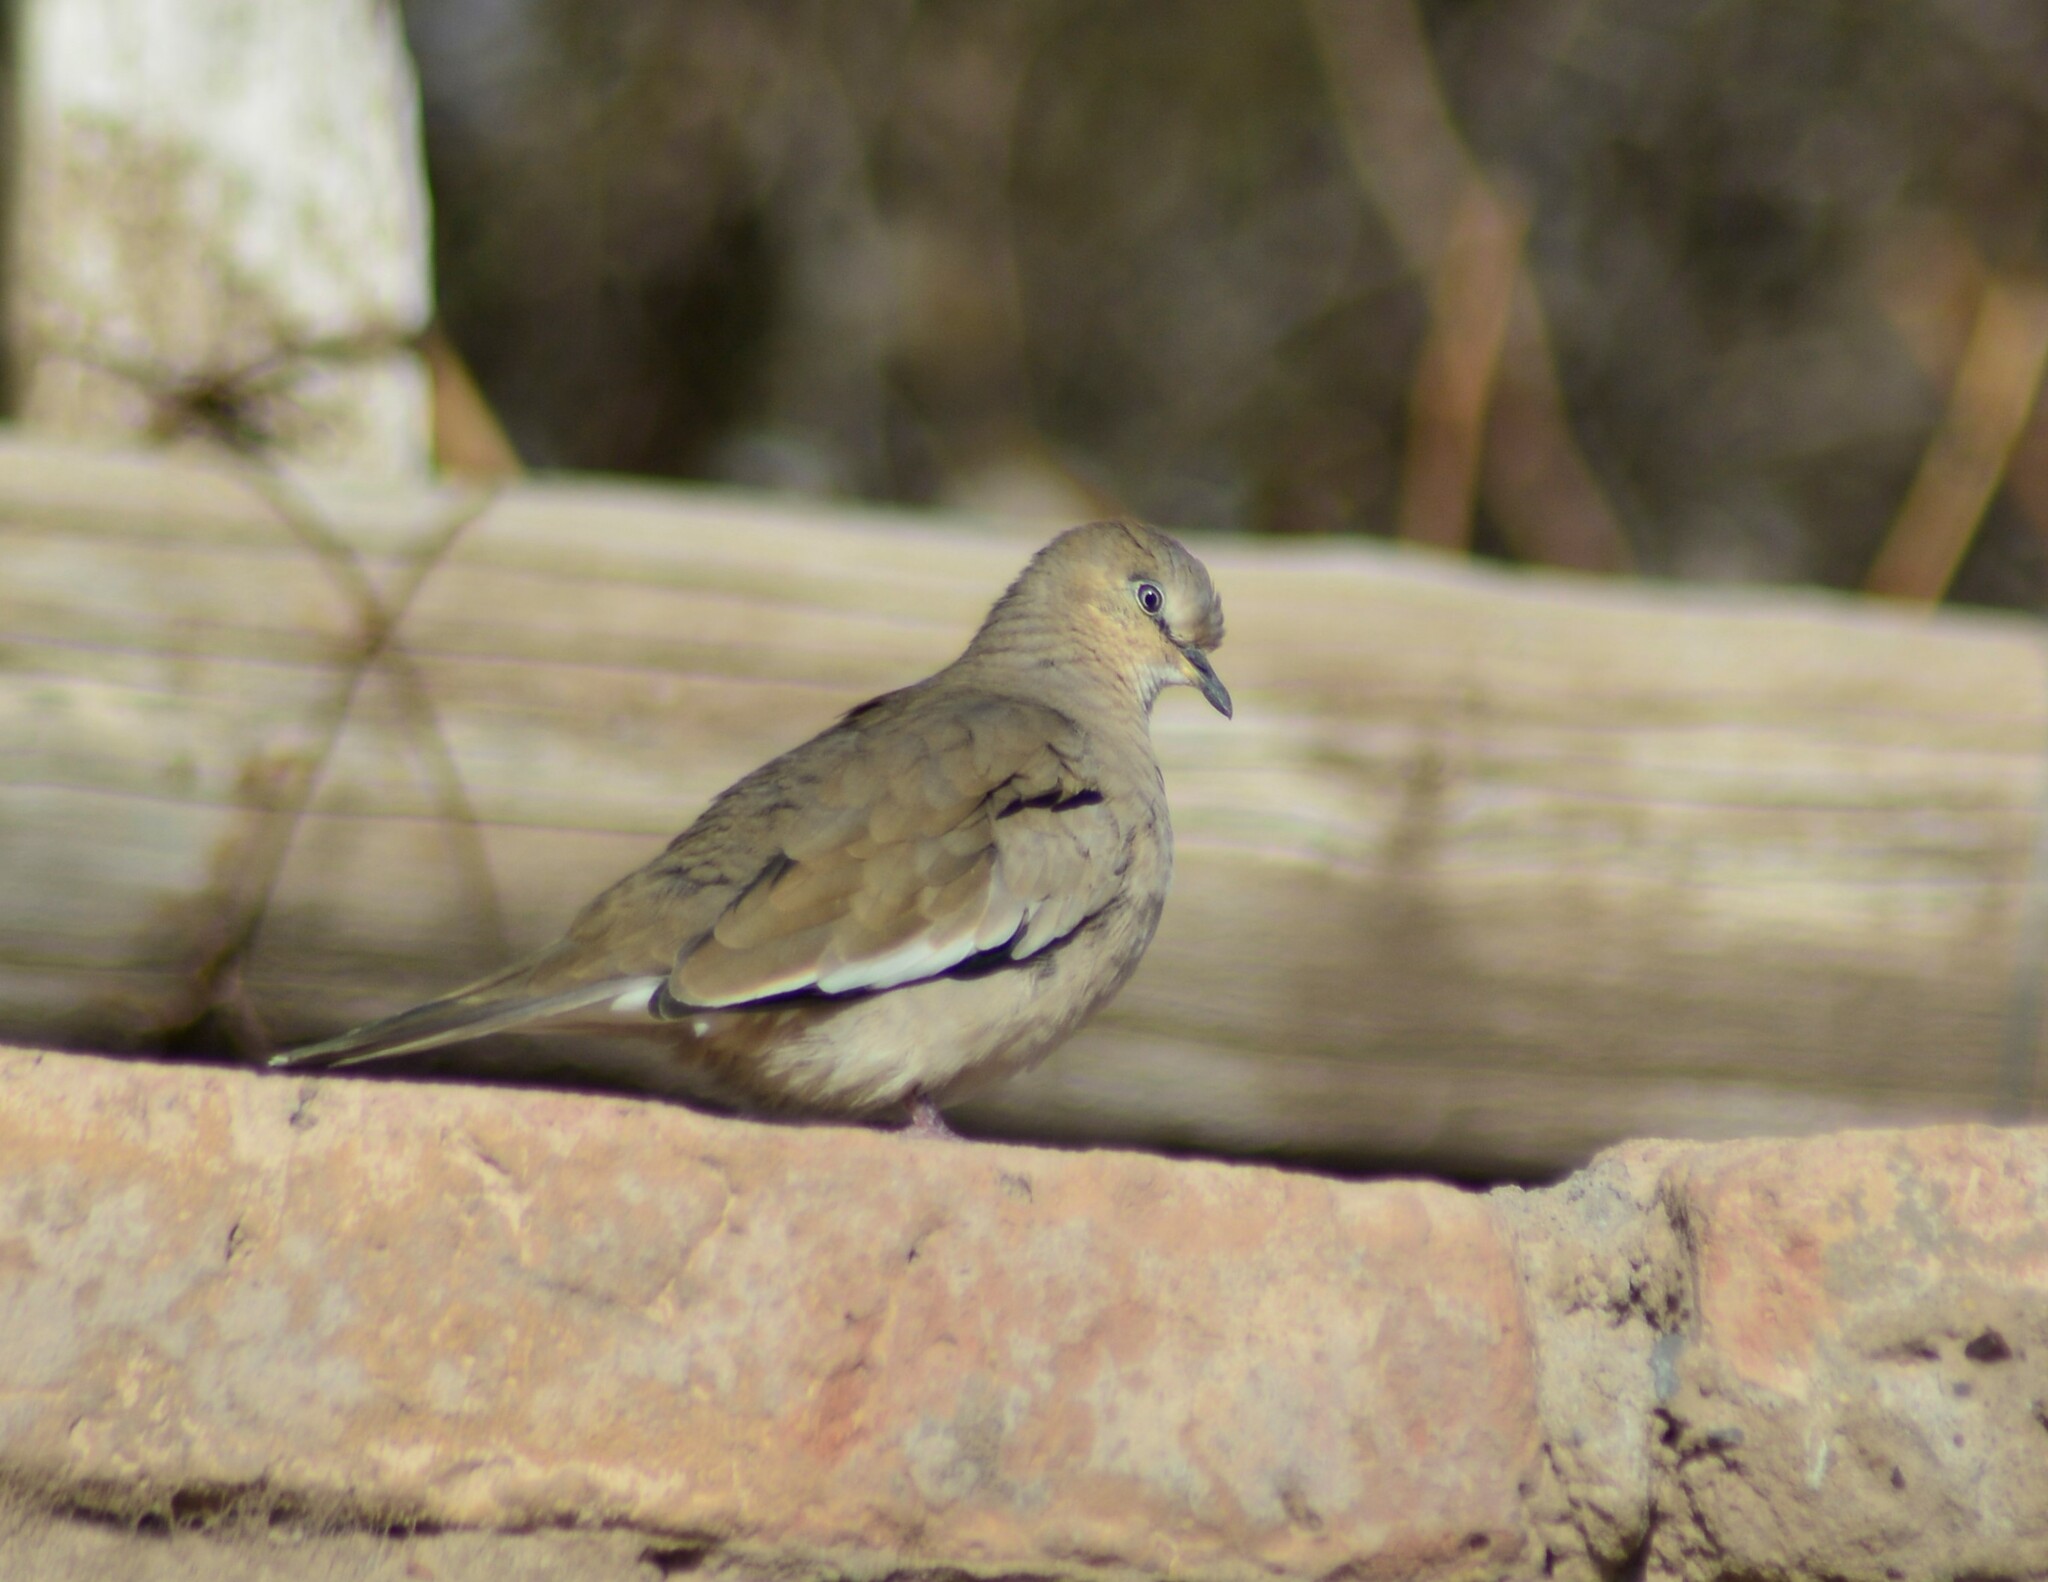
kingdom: Animalia
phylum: Chordata
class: Aves
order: Columbiformes
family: Columbidae
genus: Columbina
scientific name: Columbina picui
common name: Picui ground dove
